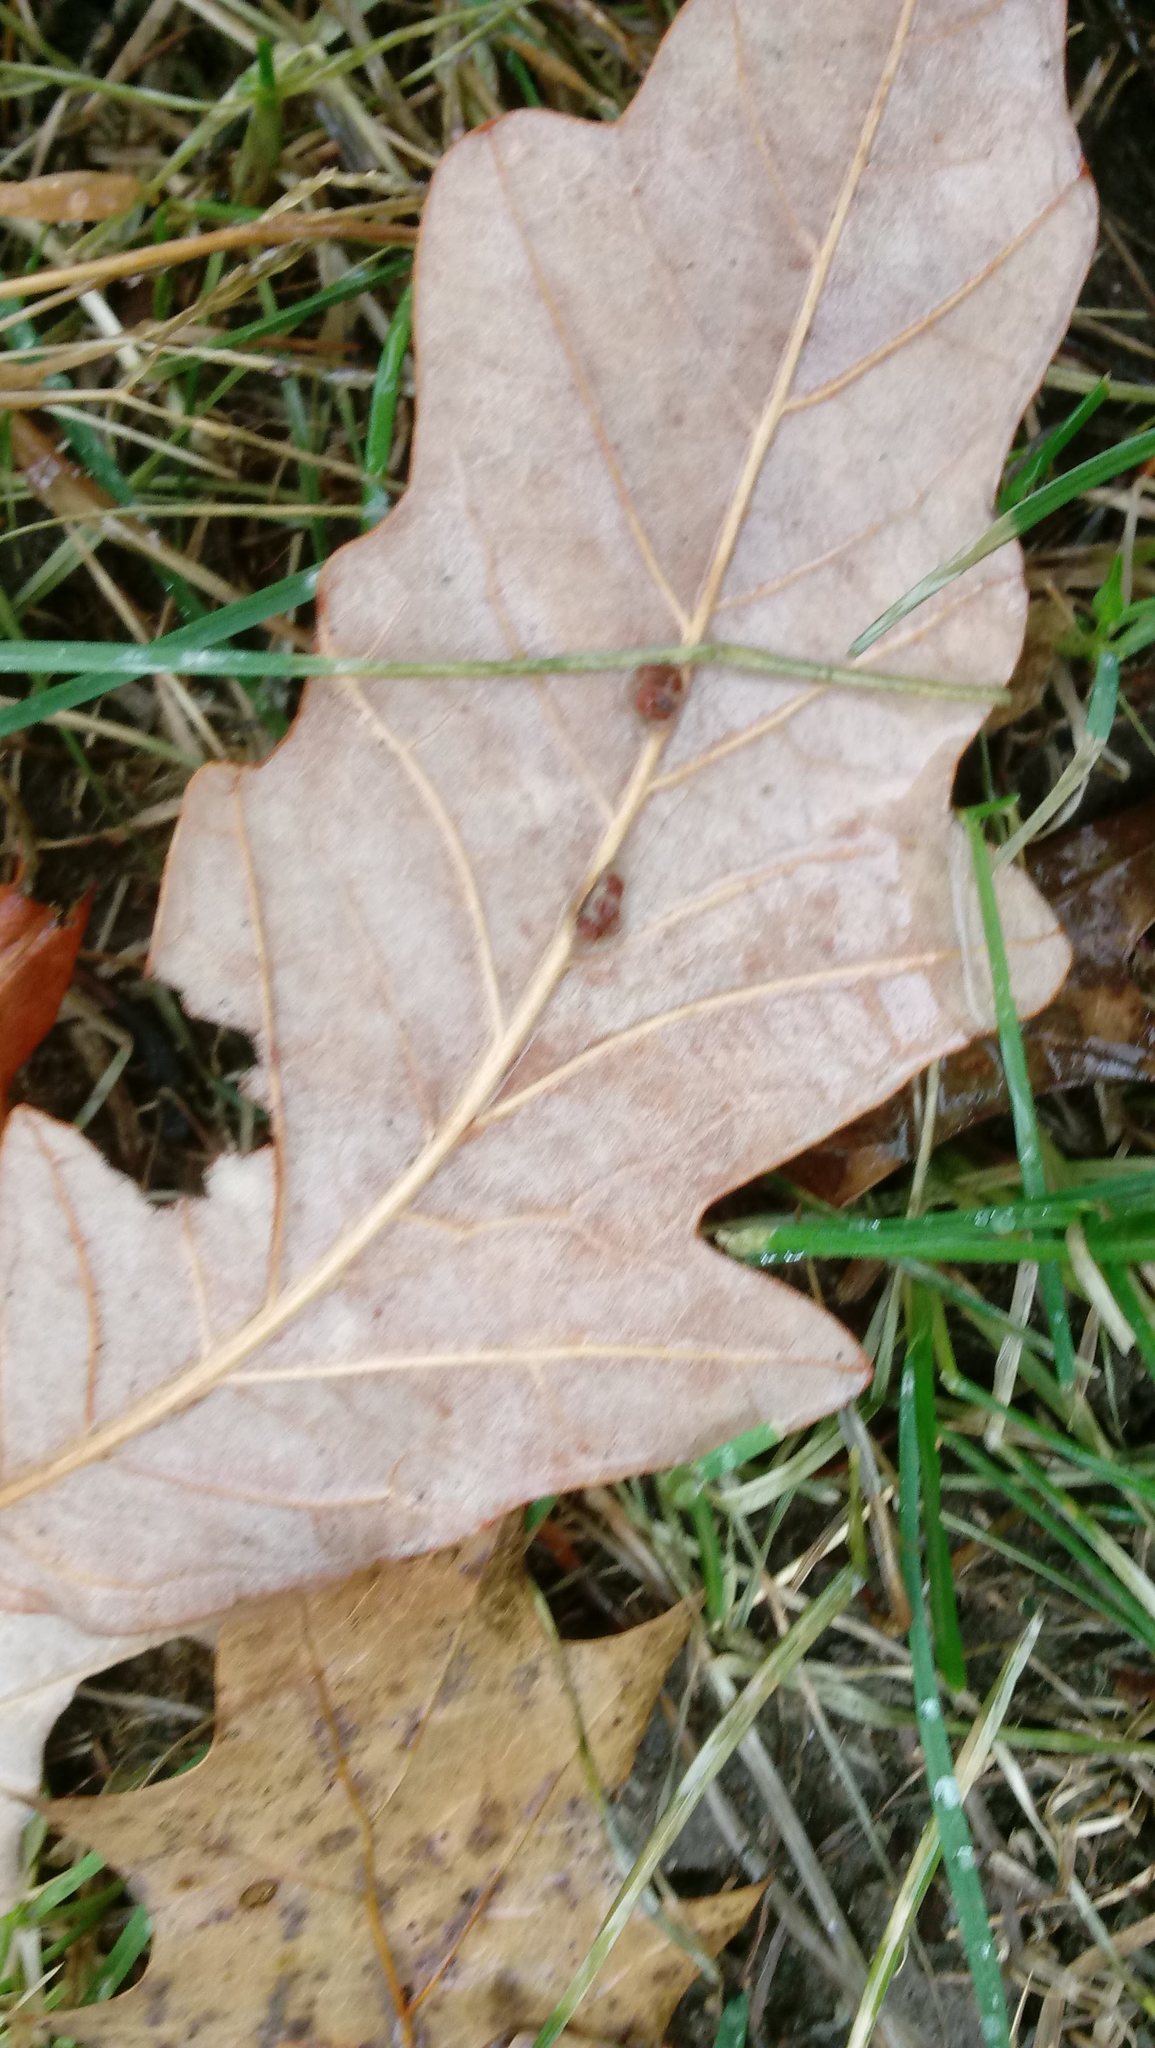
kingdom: Animalia
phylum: Arthropoda
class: Insecta
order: Hymenoptera
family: Cynipidae
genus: Andricus
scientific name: Andricus Druon ignotum
